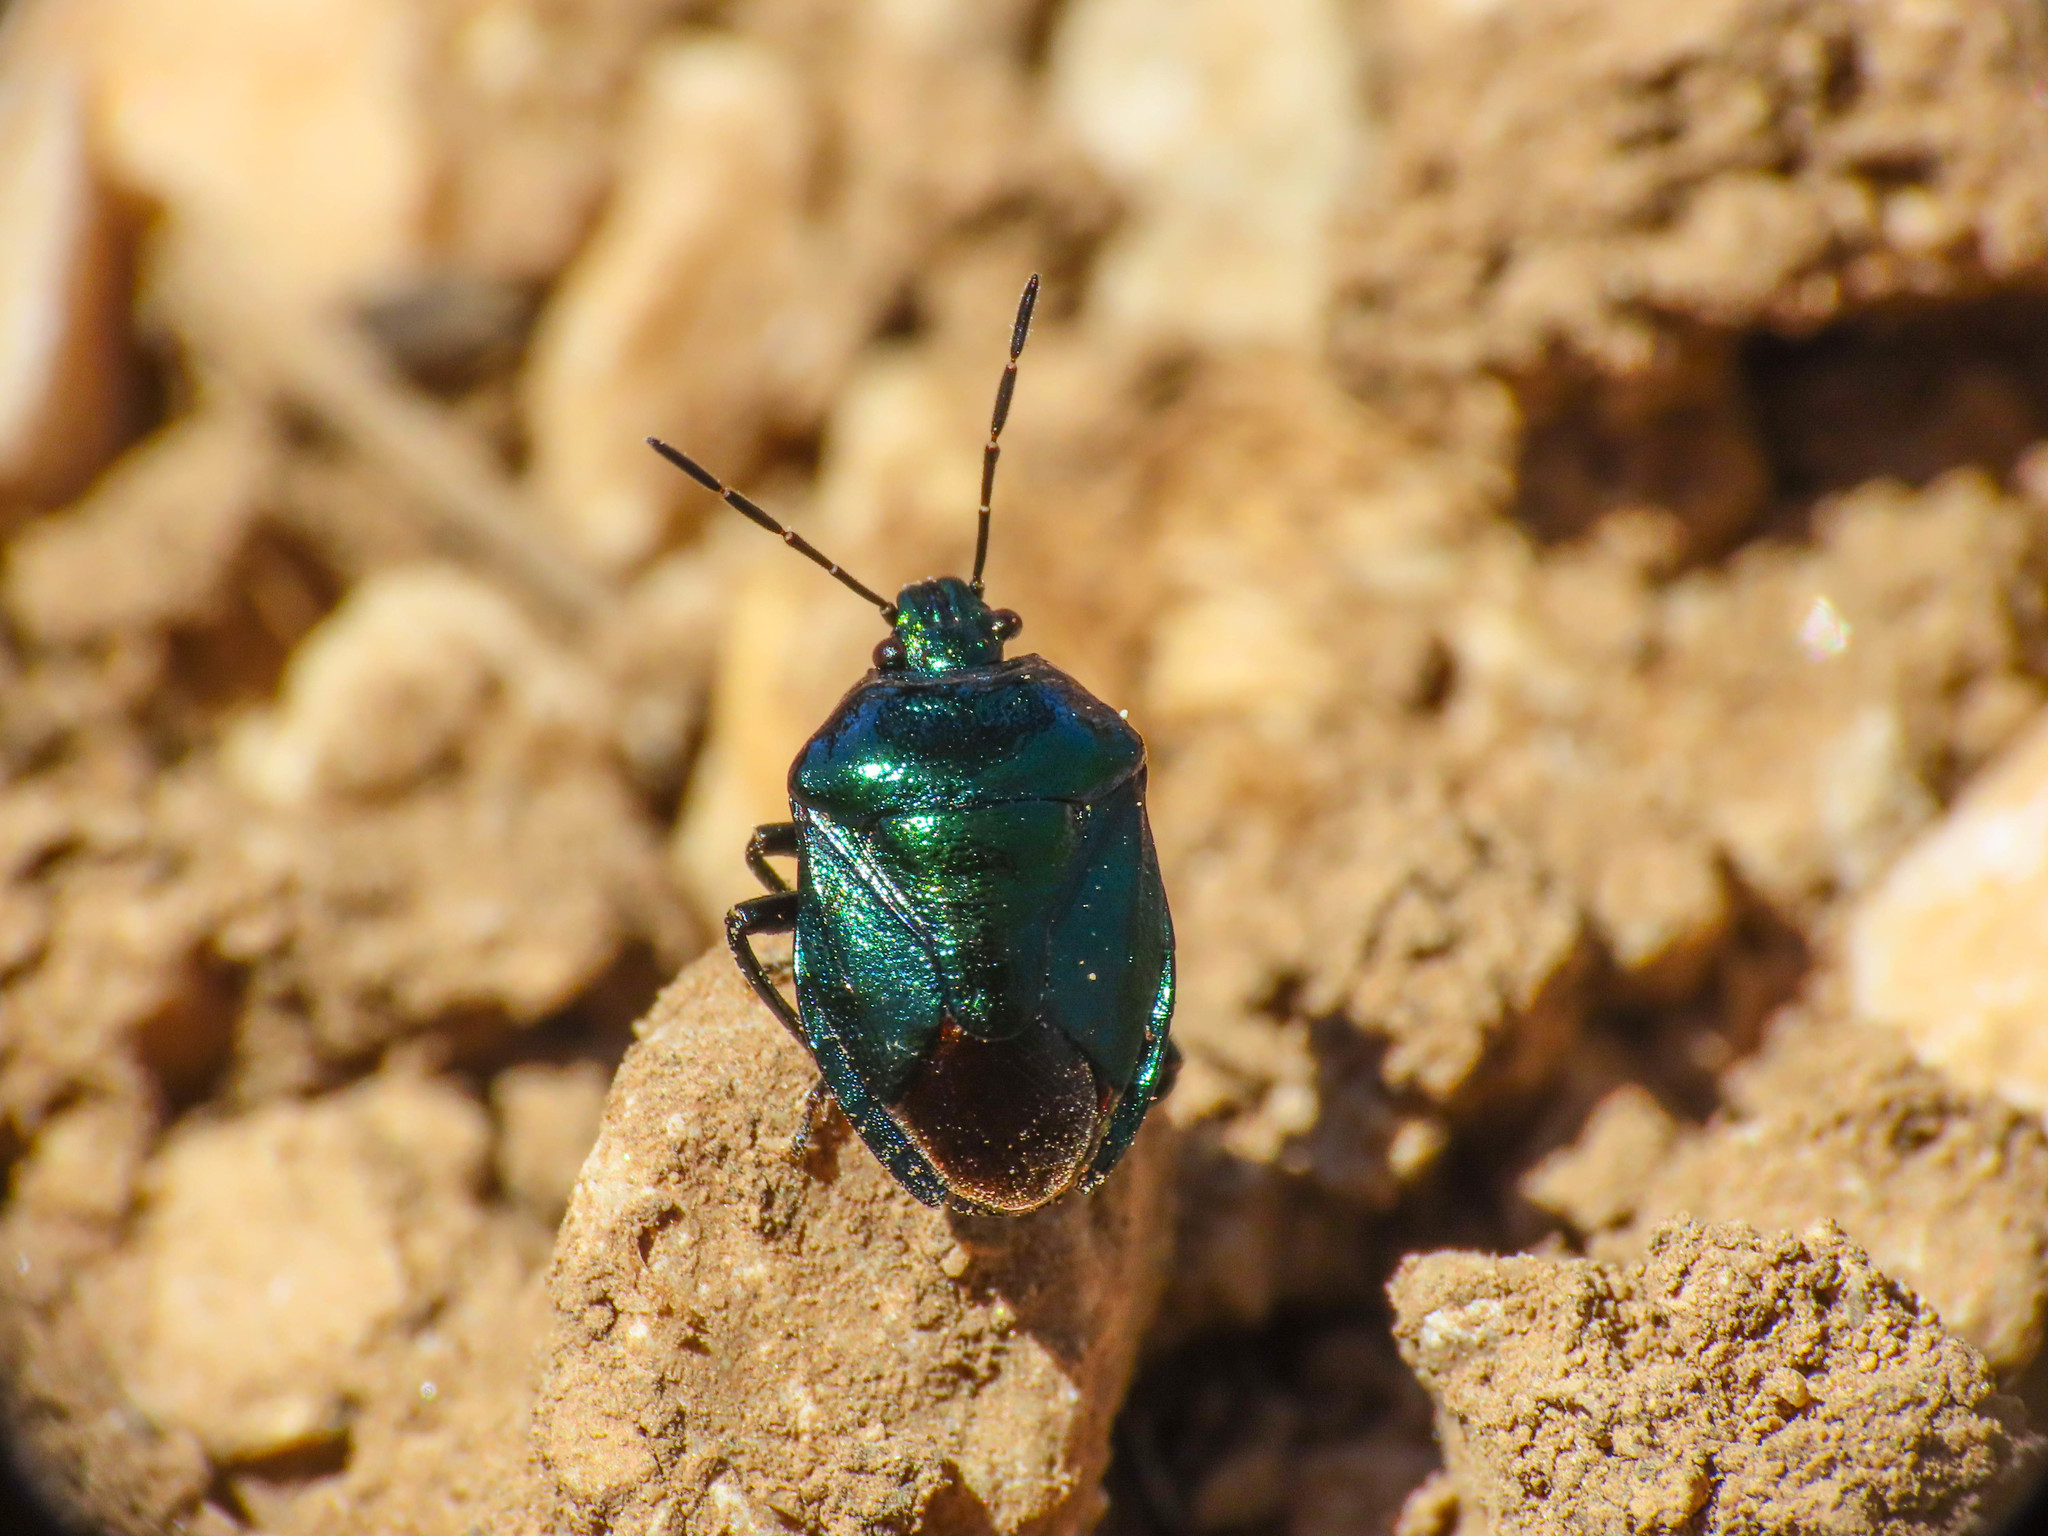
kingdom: Animalia
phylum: Arthropoda
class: Insecta
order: Hemiptera
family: Pentatomidae
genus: Zicrona
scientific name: Zicrona caerulea
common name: Blue shieldbug
